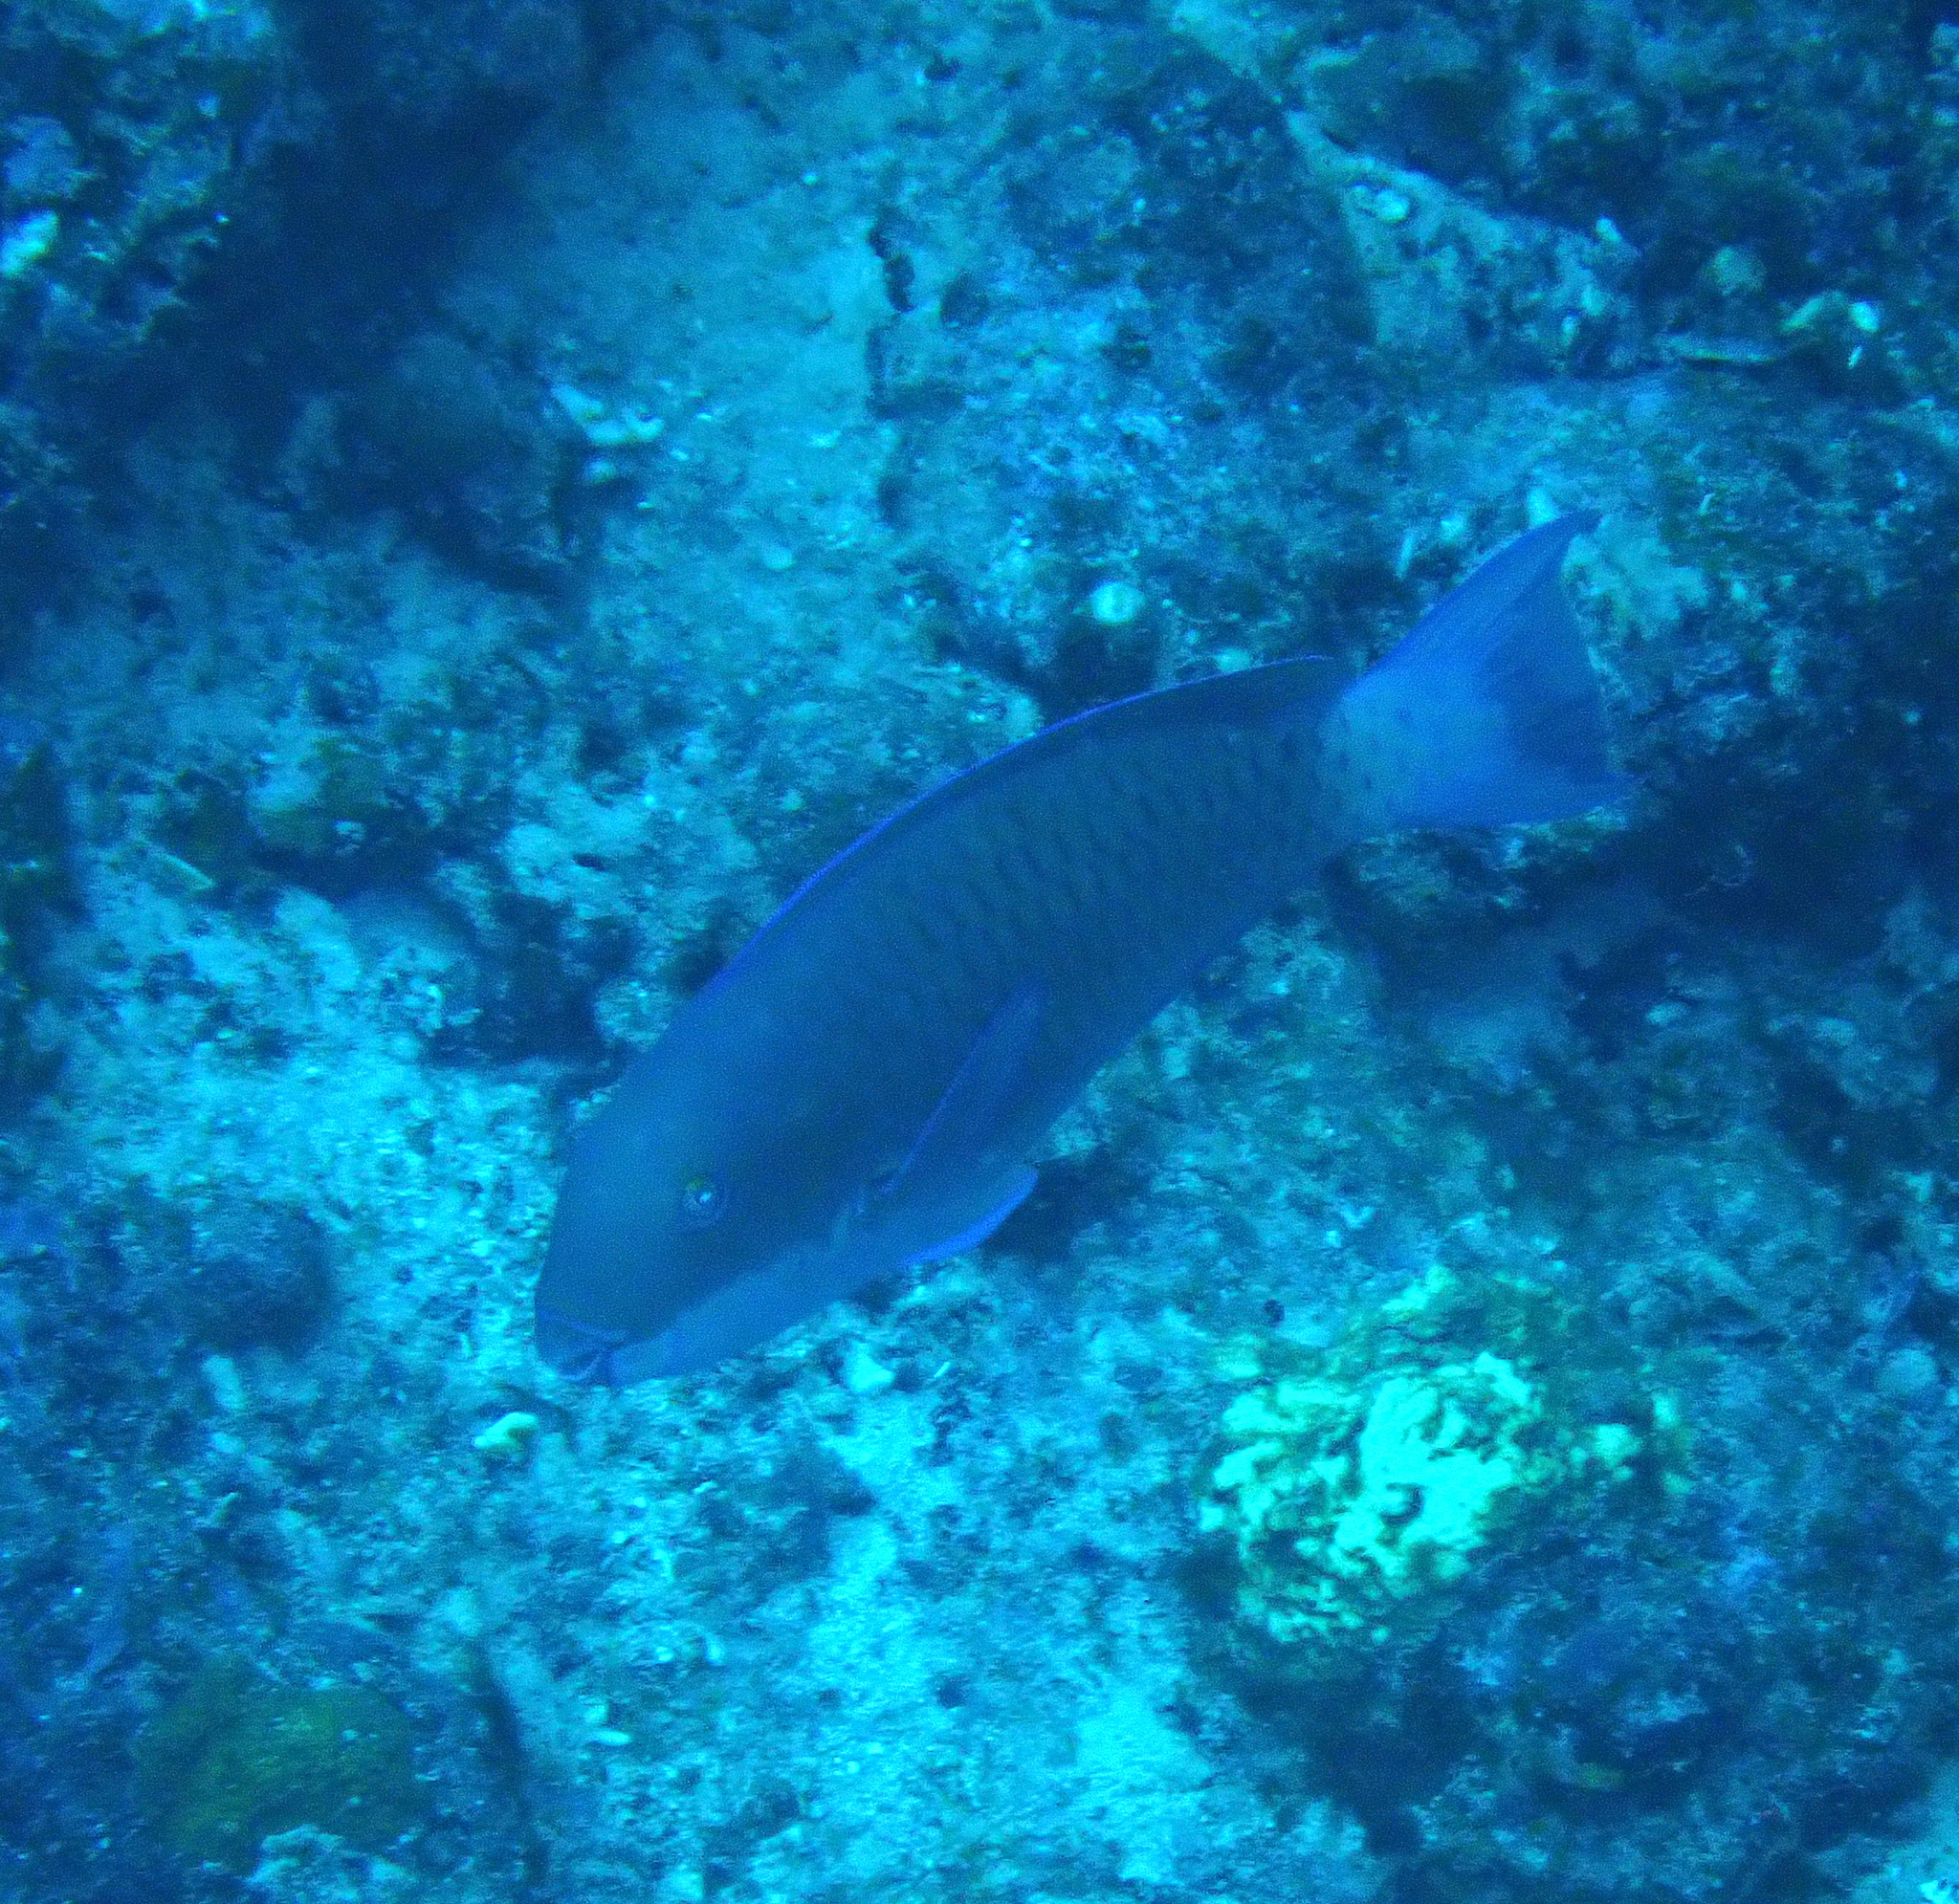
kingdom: Animalia
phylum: Chordata
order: Perciformes
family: Scaridae
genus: Chlorurus
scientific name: Chlorurus microrhinos
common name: Steephead parrotfish
